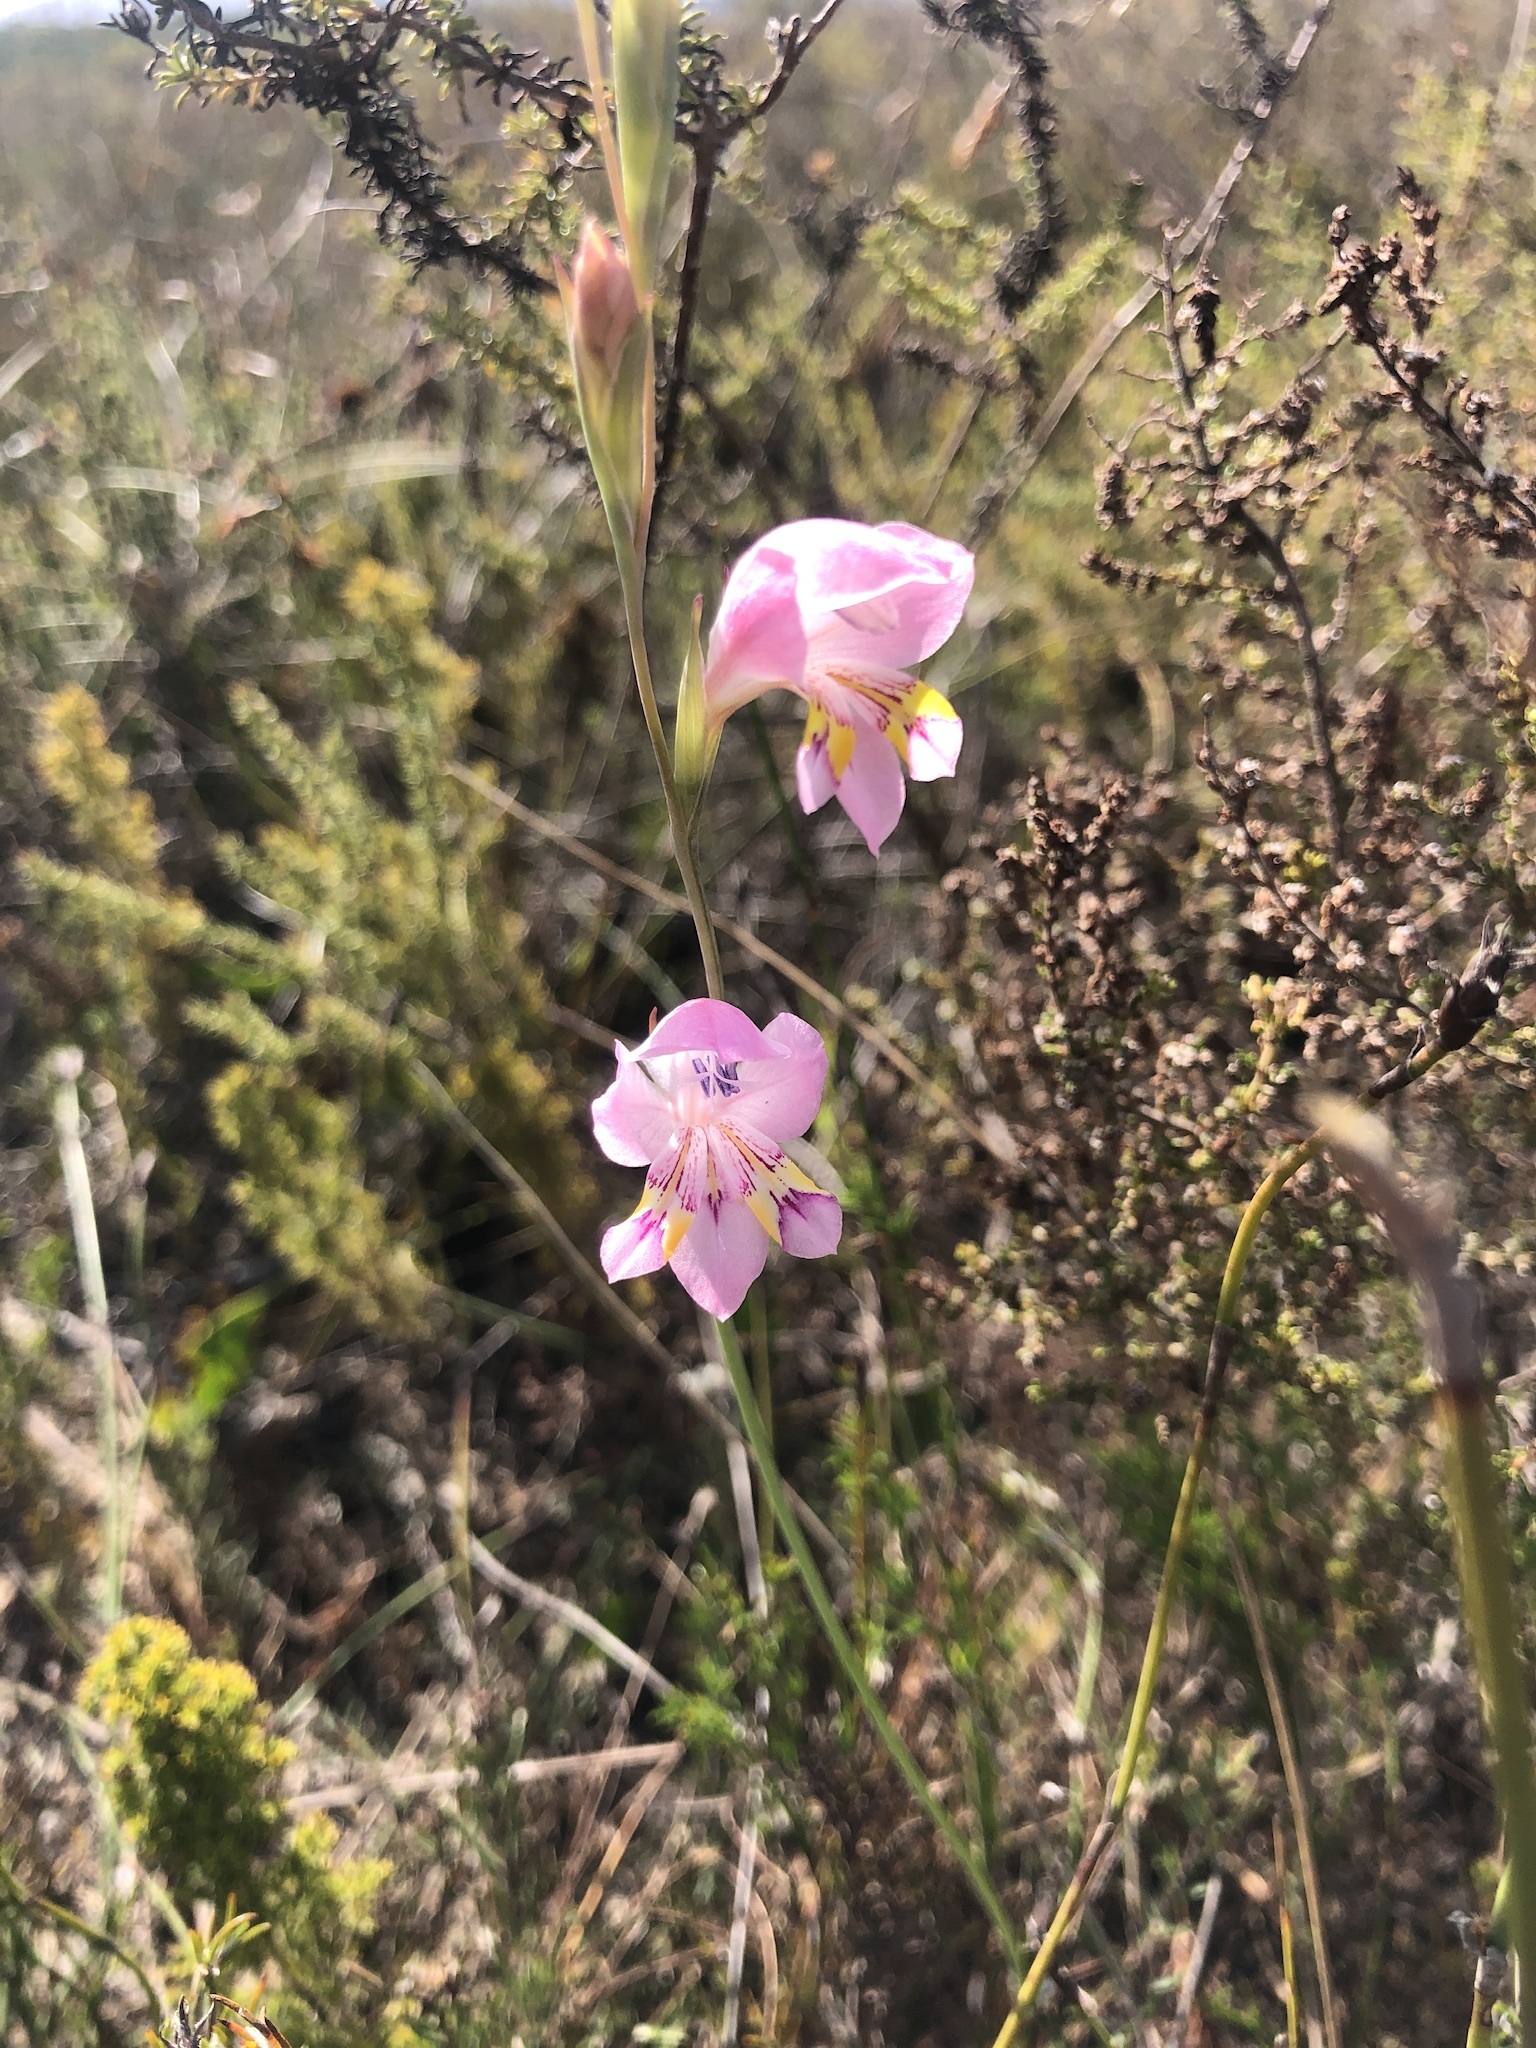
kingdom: Plantae
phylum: Tracheophyta
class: Liliopsida
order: Asparagales
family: Iridaceae
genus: Gladiolus
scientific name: Gladiolus brevifolius
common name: March pypie
